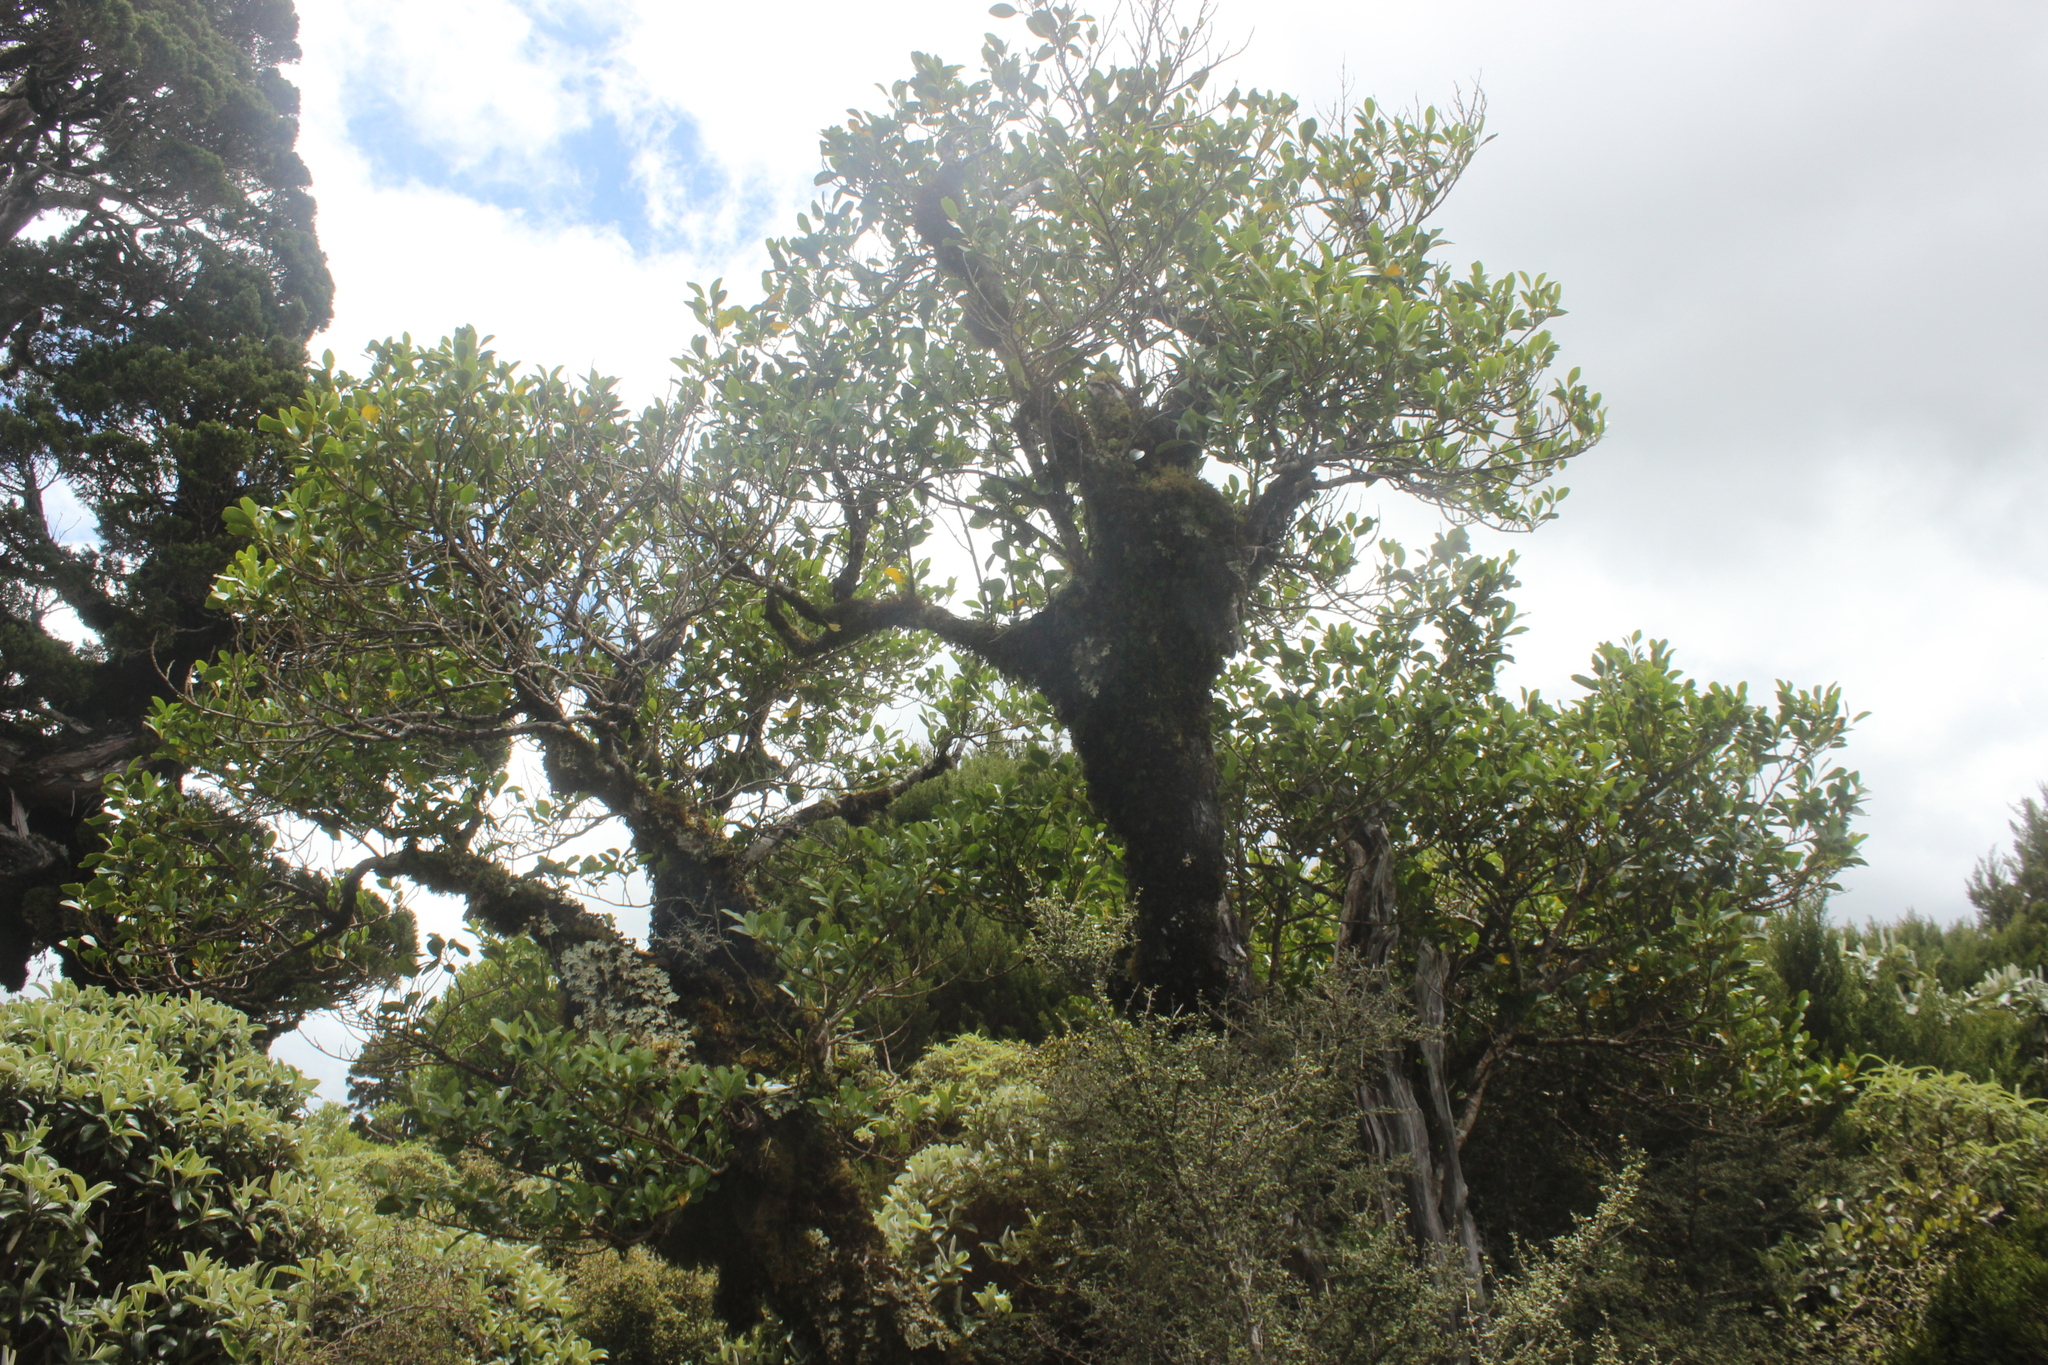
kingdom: Plantae
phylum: Tracheophyta
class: Magnoliopsida
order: Apiales
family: Griseliniaceae
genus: Griselinia
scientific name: Griselinia littoralis
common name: New zealand broadleaf
